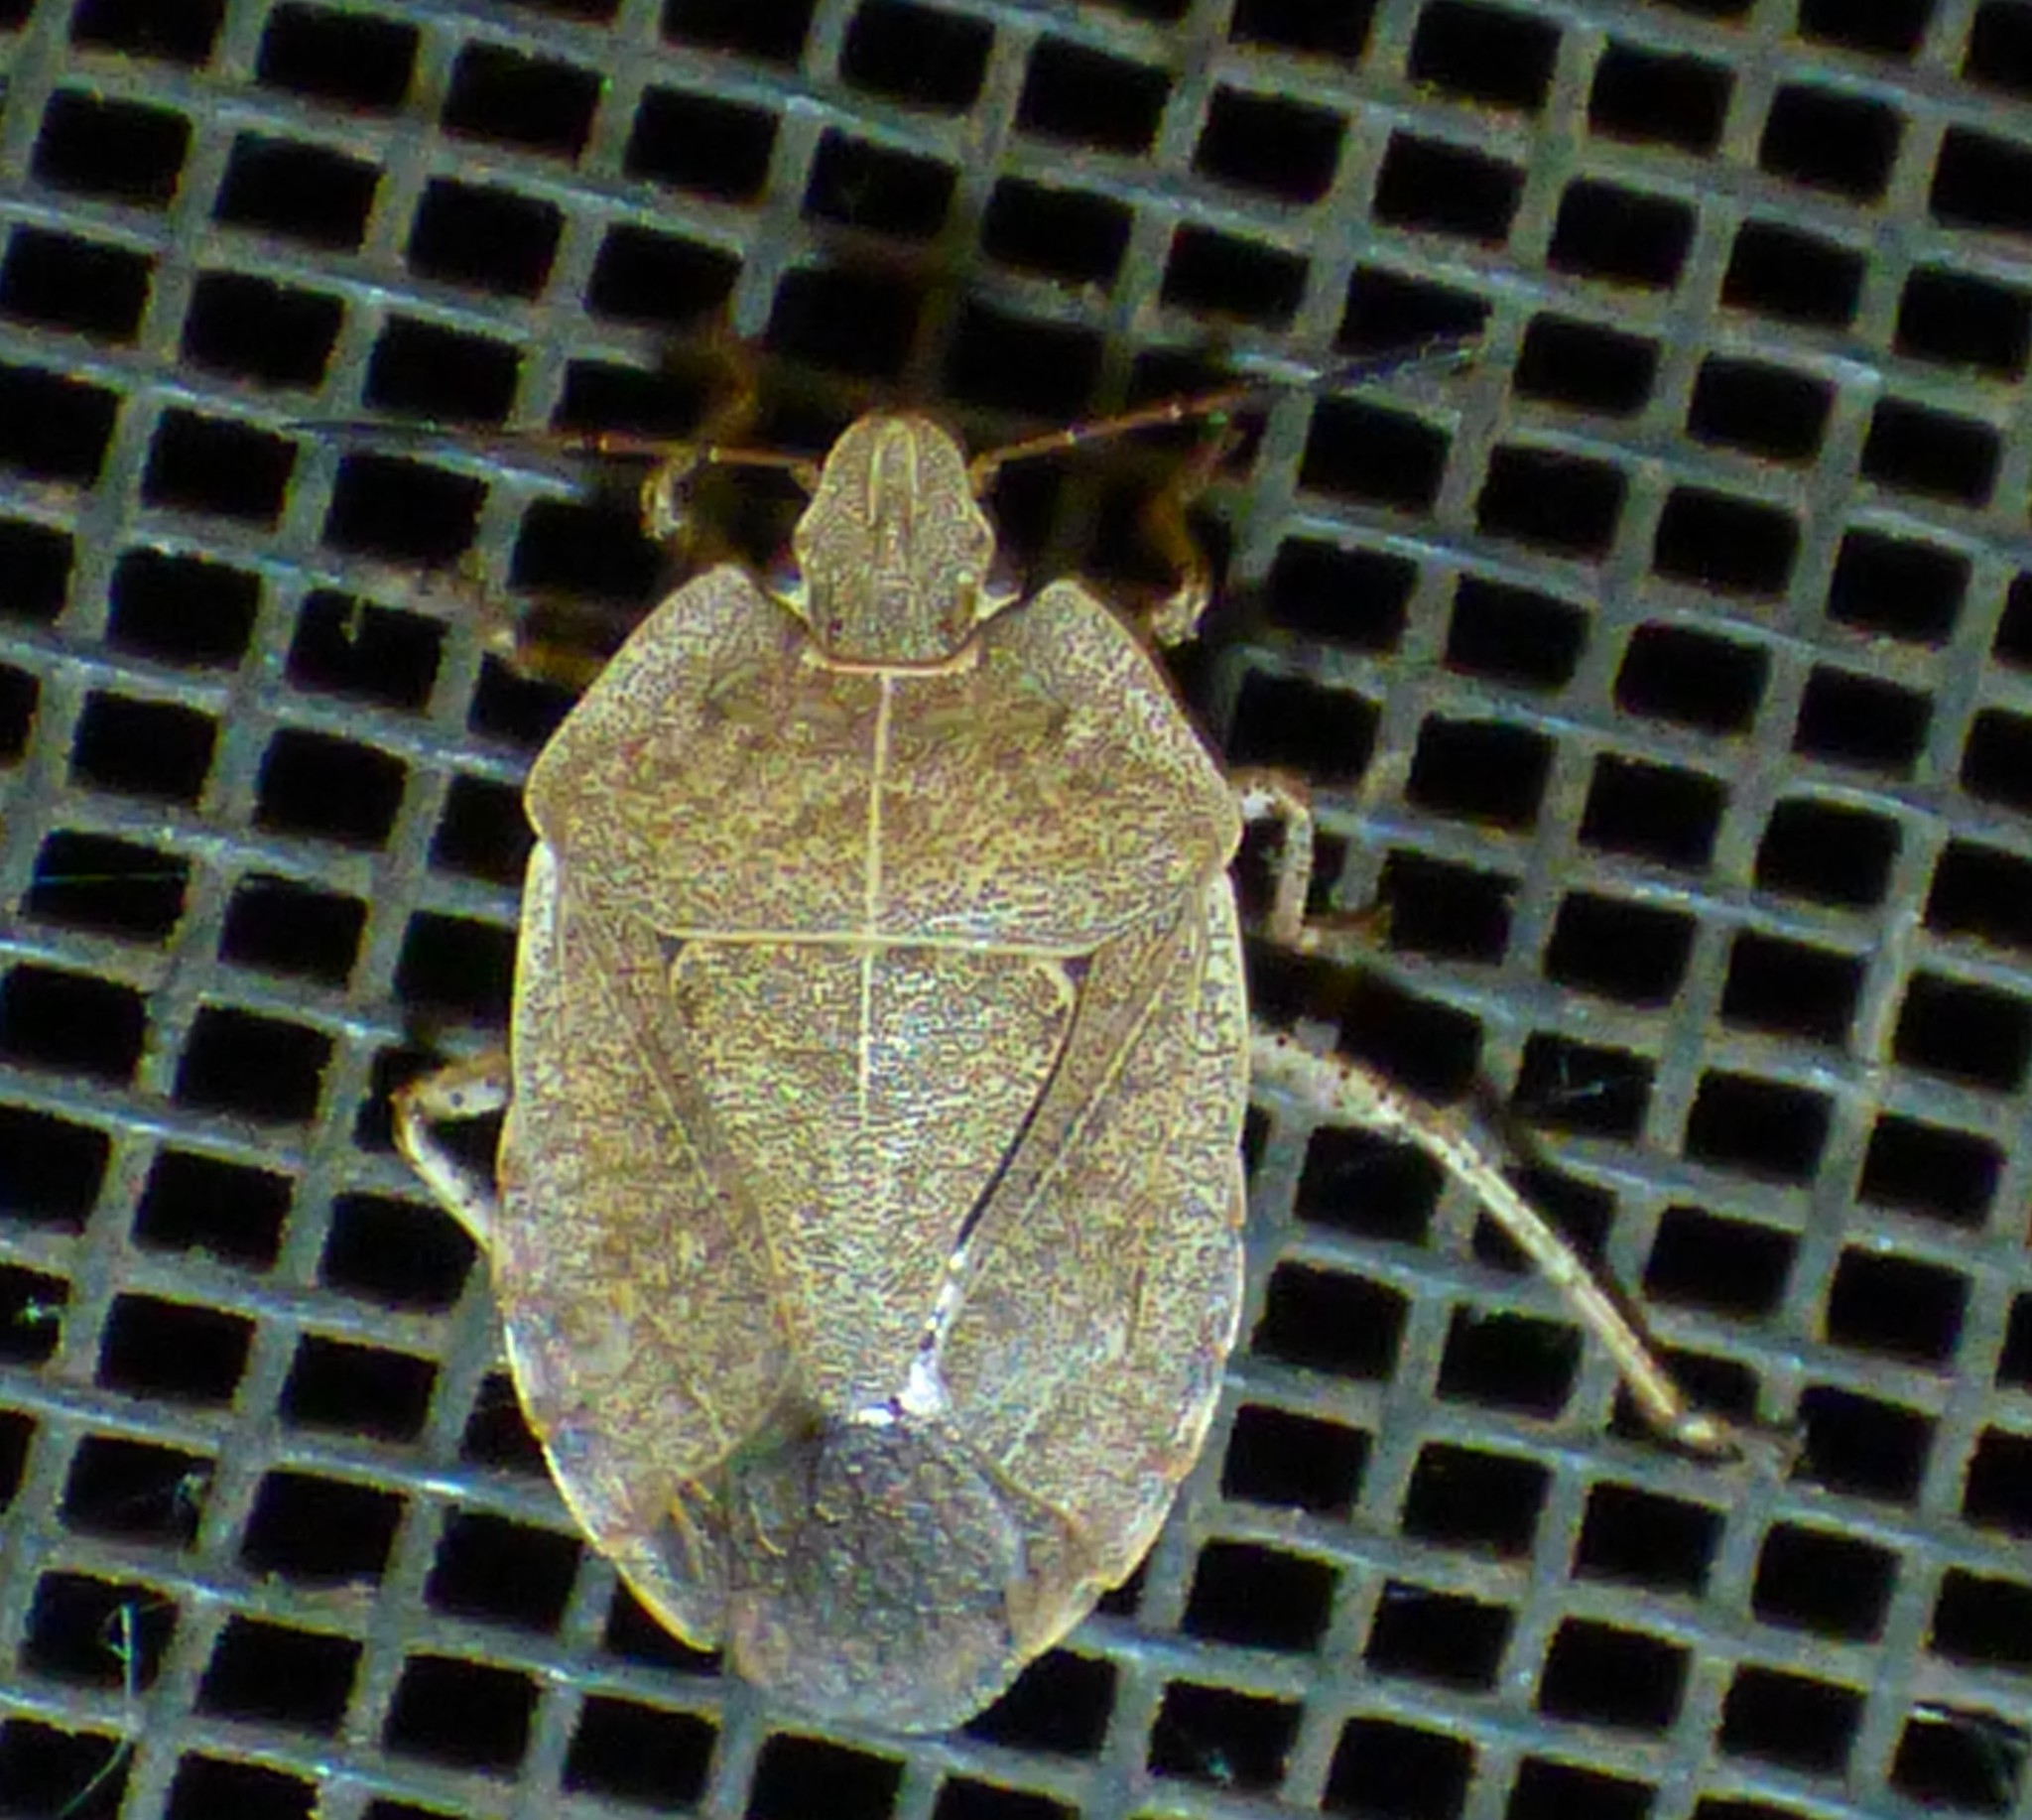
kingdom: Animalia
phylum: Arthropoda
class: Insecta
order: Hemiptera
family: Pentatomidae
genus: Menecles
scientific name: Menecles insertus
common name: Elf shoe stink bug
